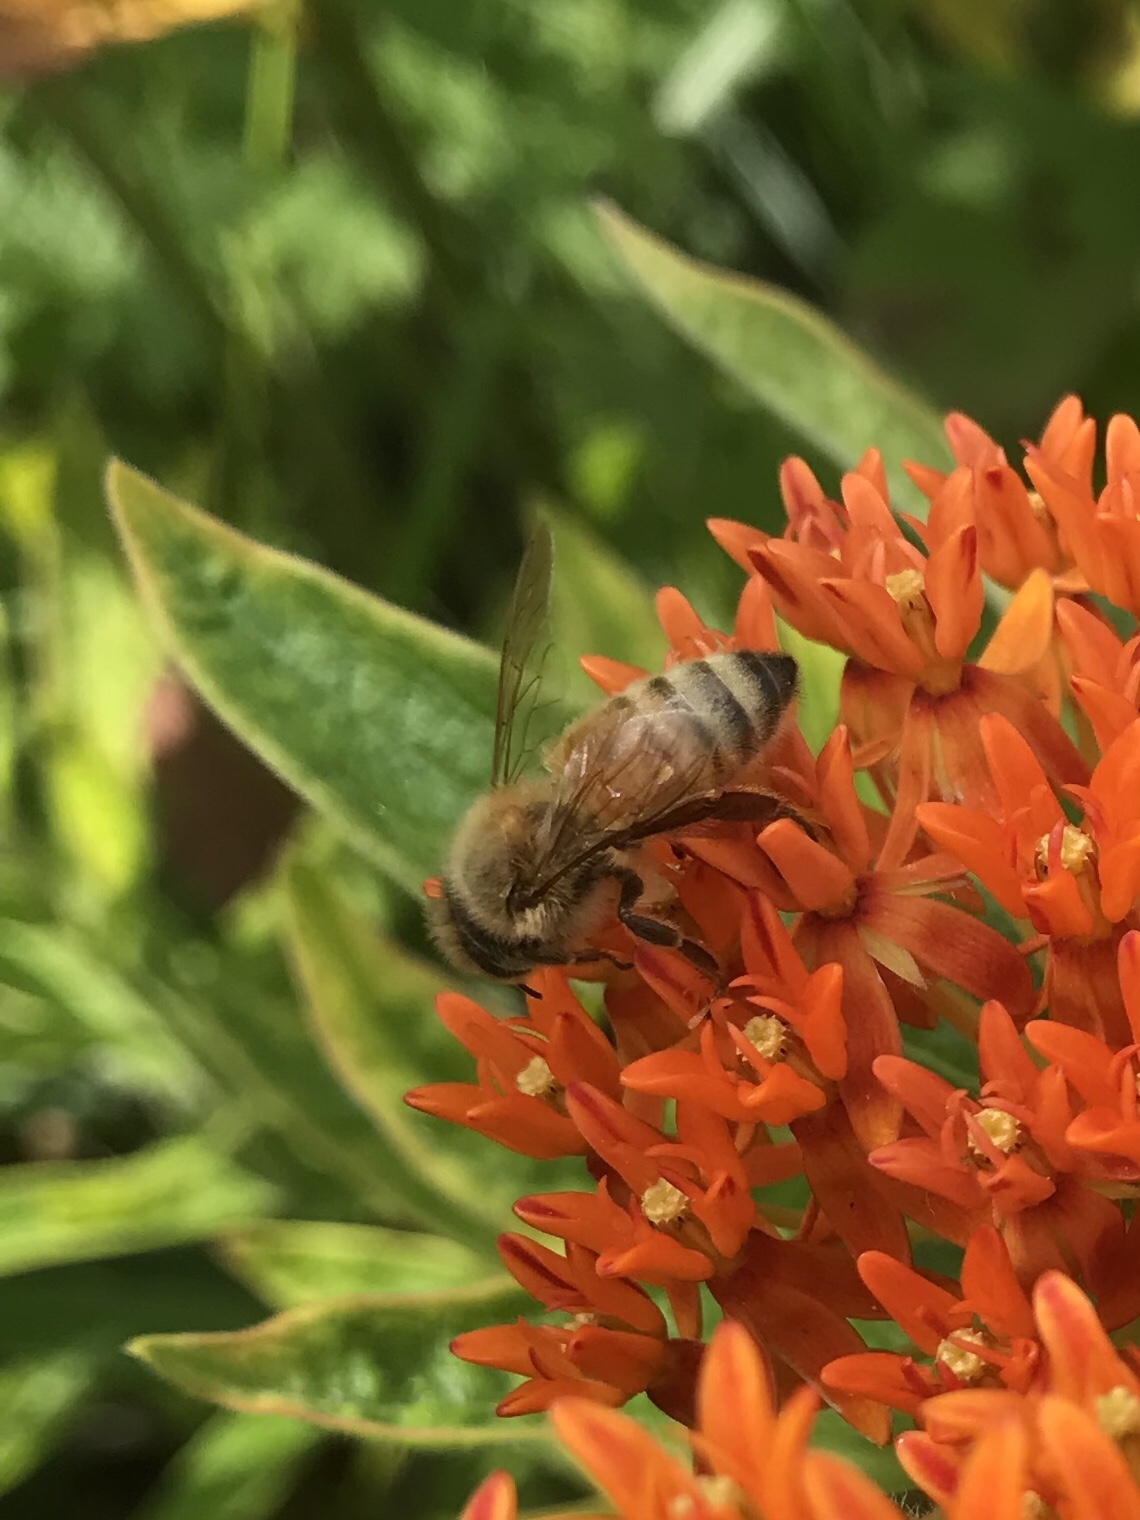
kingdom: Animalia
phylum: Arthropoda
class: Insecta
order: Hymenoptera
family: Apidae
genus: Apis
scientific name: Apis mellifera
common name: Honey bee
